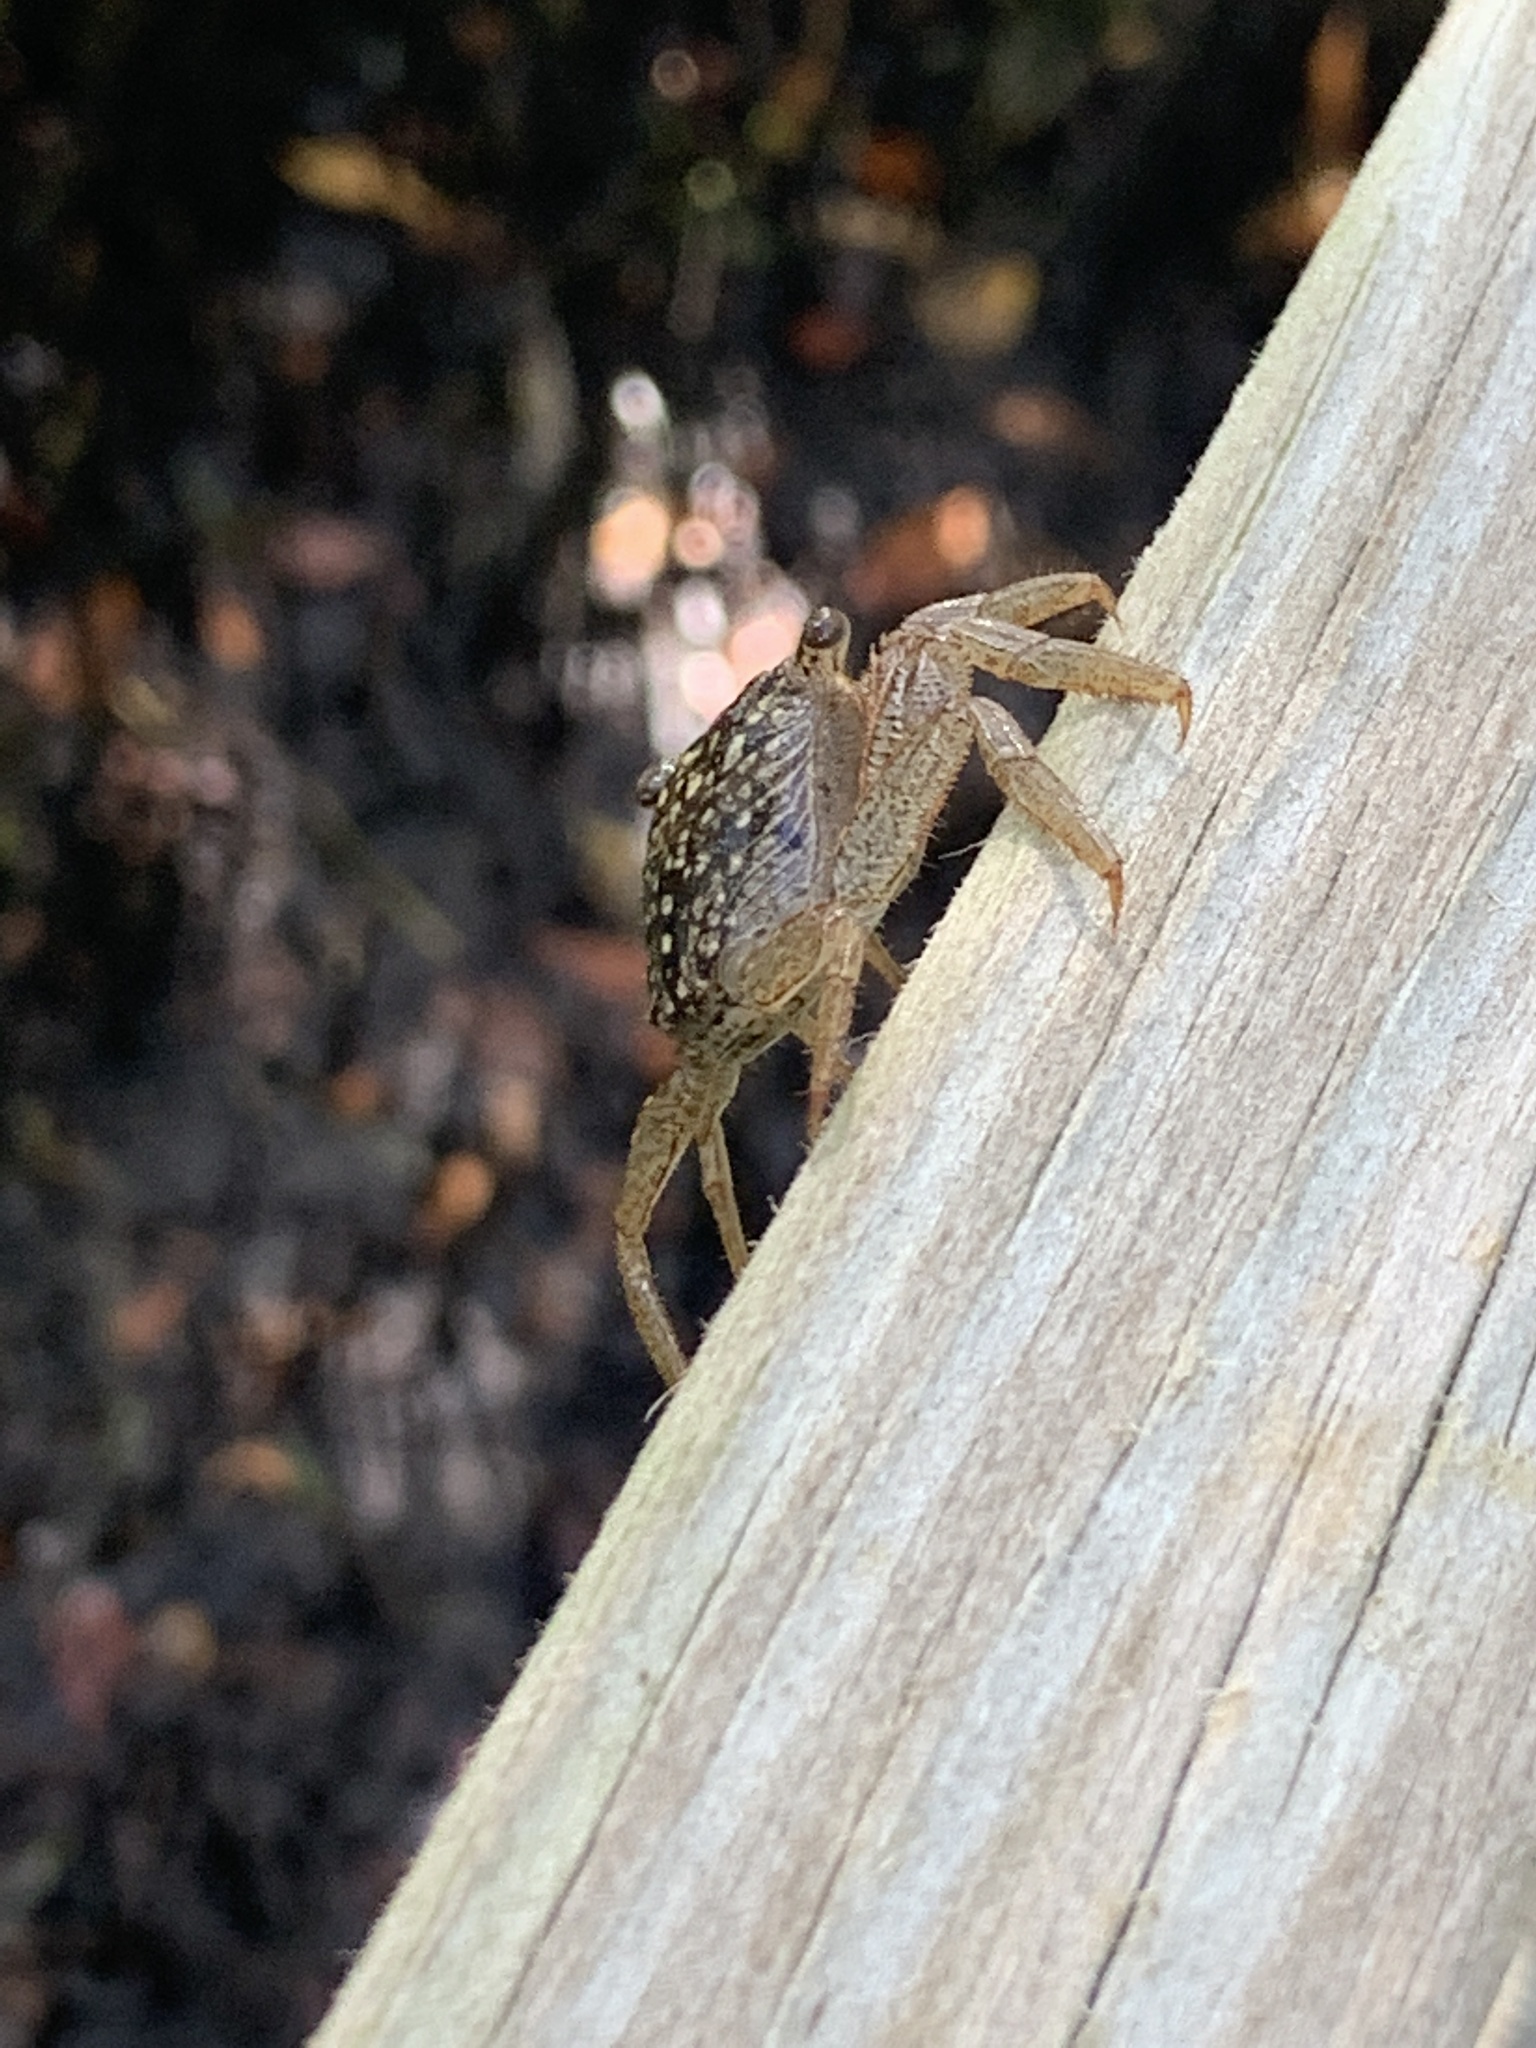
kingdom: Animalia
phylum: Arthropoda
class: Malacostraca
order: Decapoda
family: Sesarmidae
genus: Aratus
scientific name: Aratus pisonii
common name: Mangrove crab
